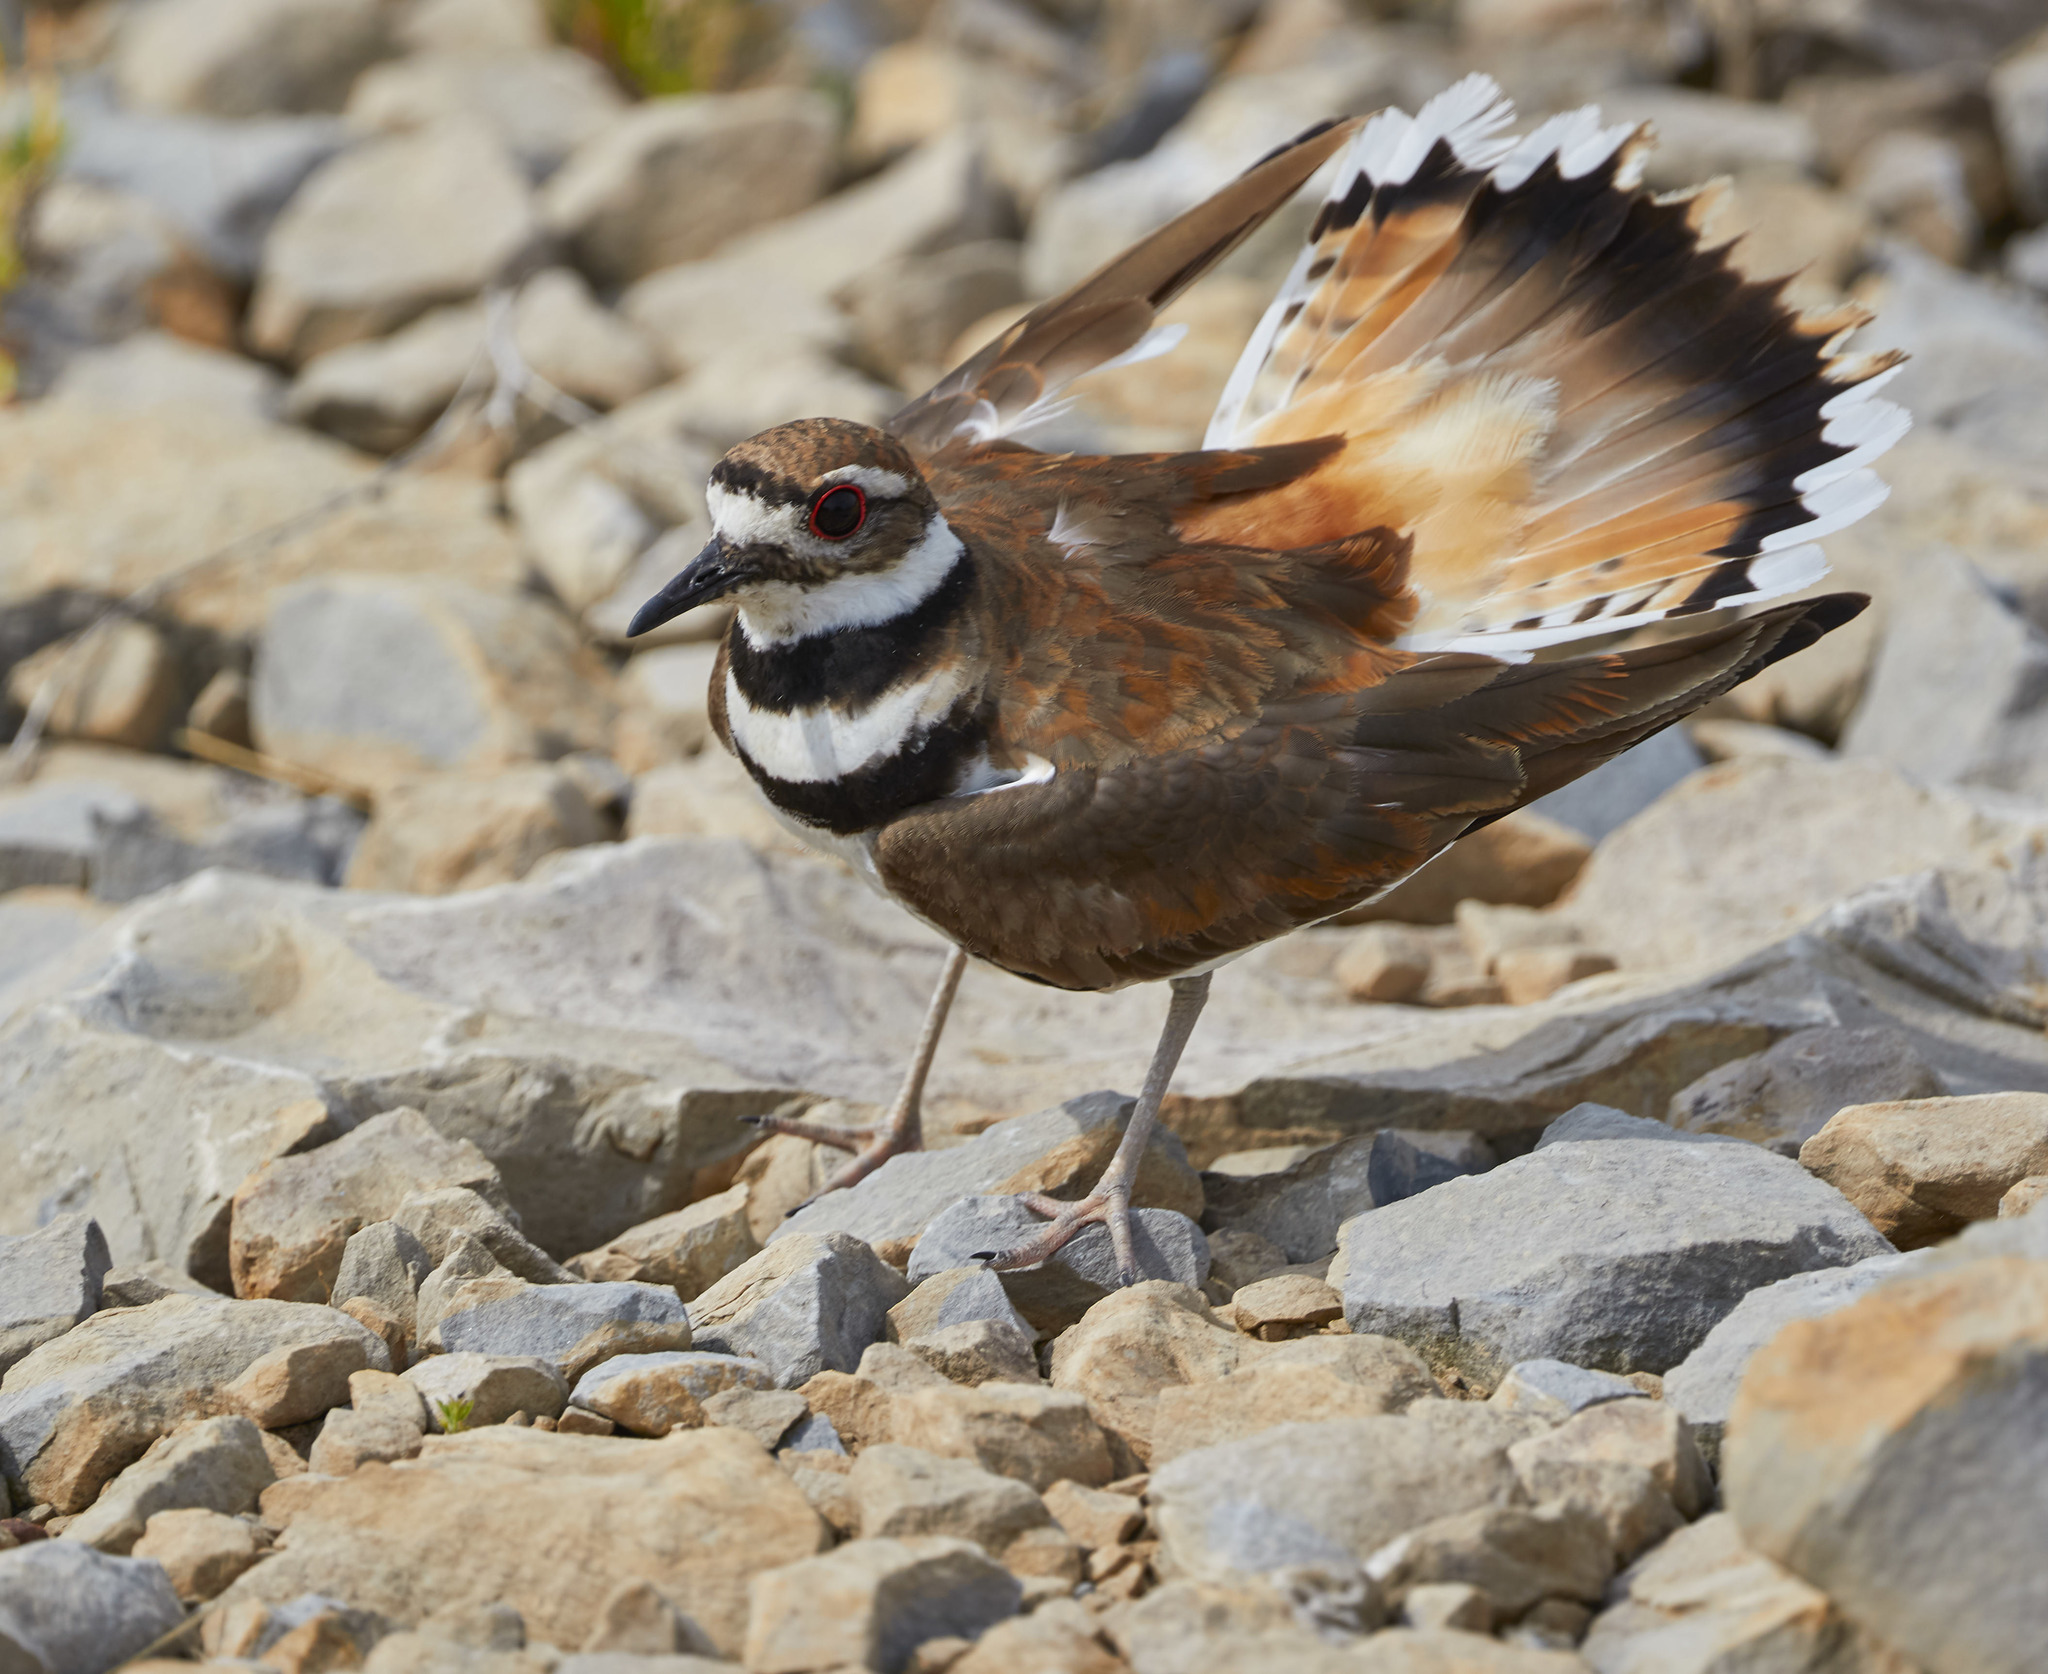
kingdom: Animalia
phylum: Chordata
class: Aves
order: Charadriiformes
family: Charadriidae
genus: Charadrius
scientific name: Charadrius vociferus
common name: Killdeer
